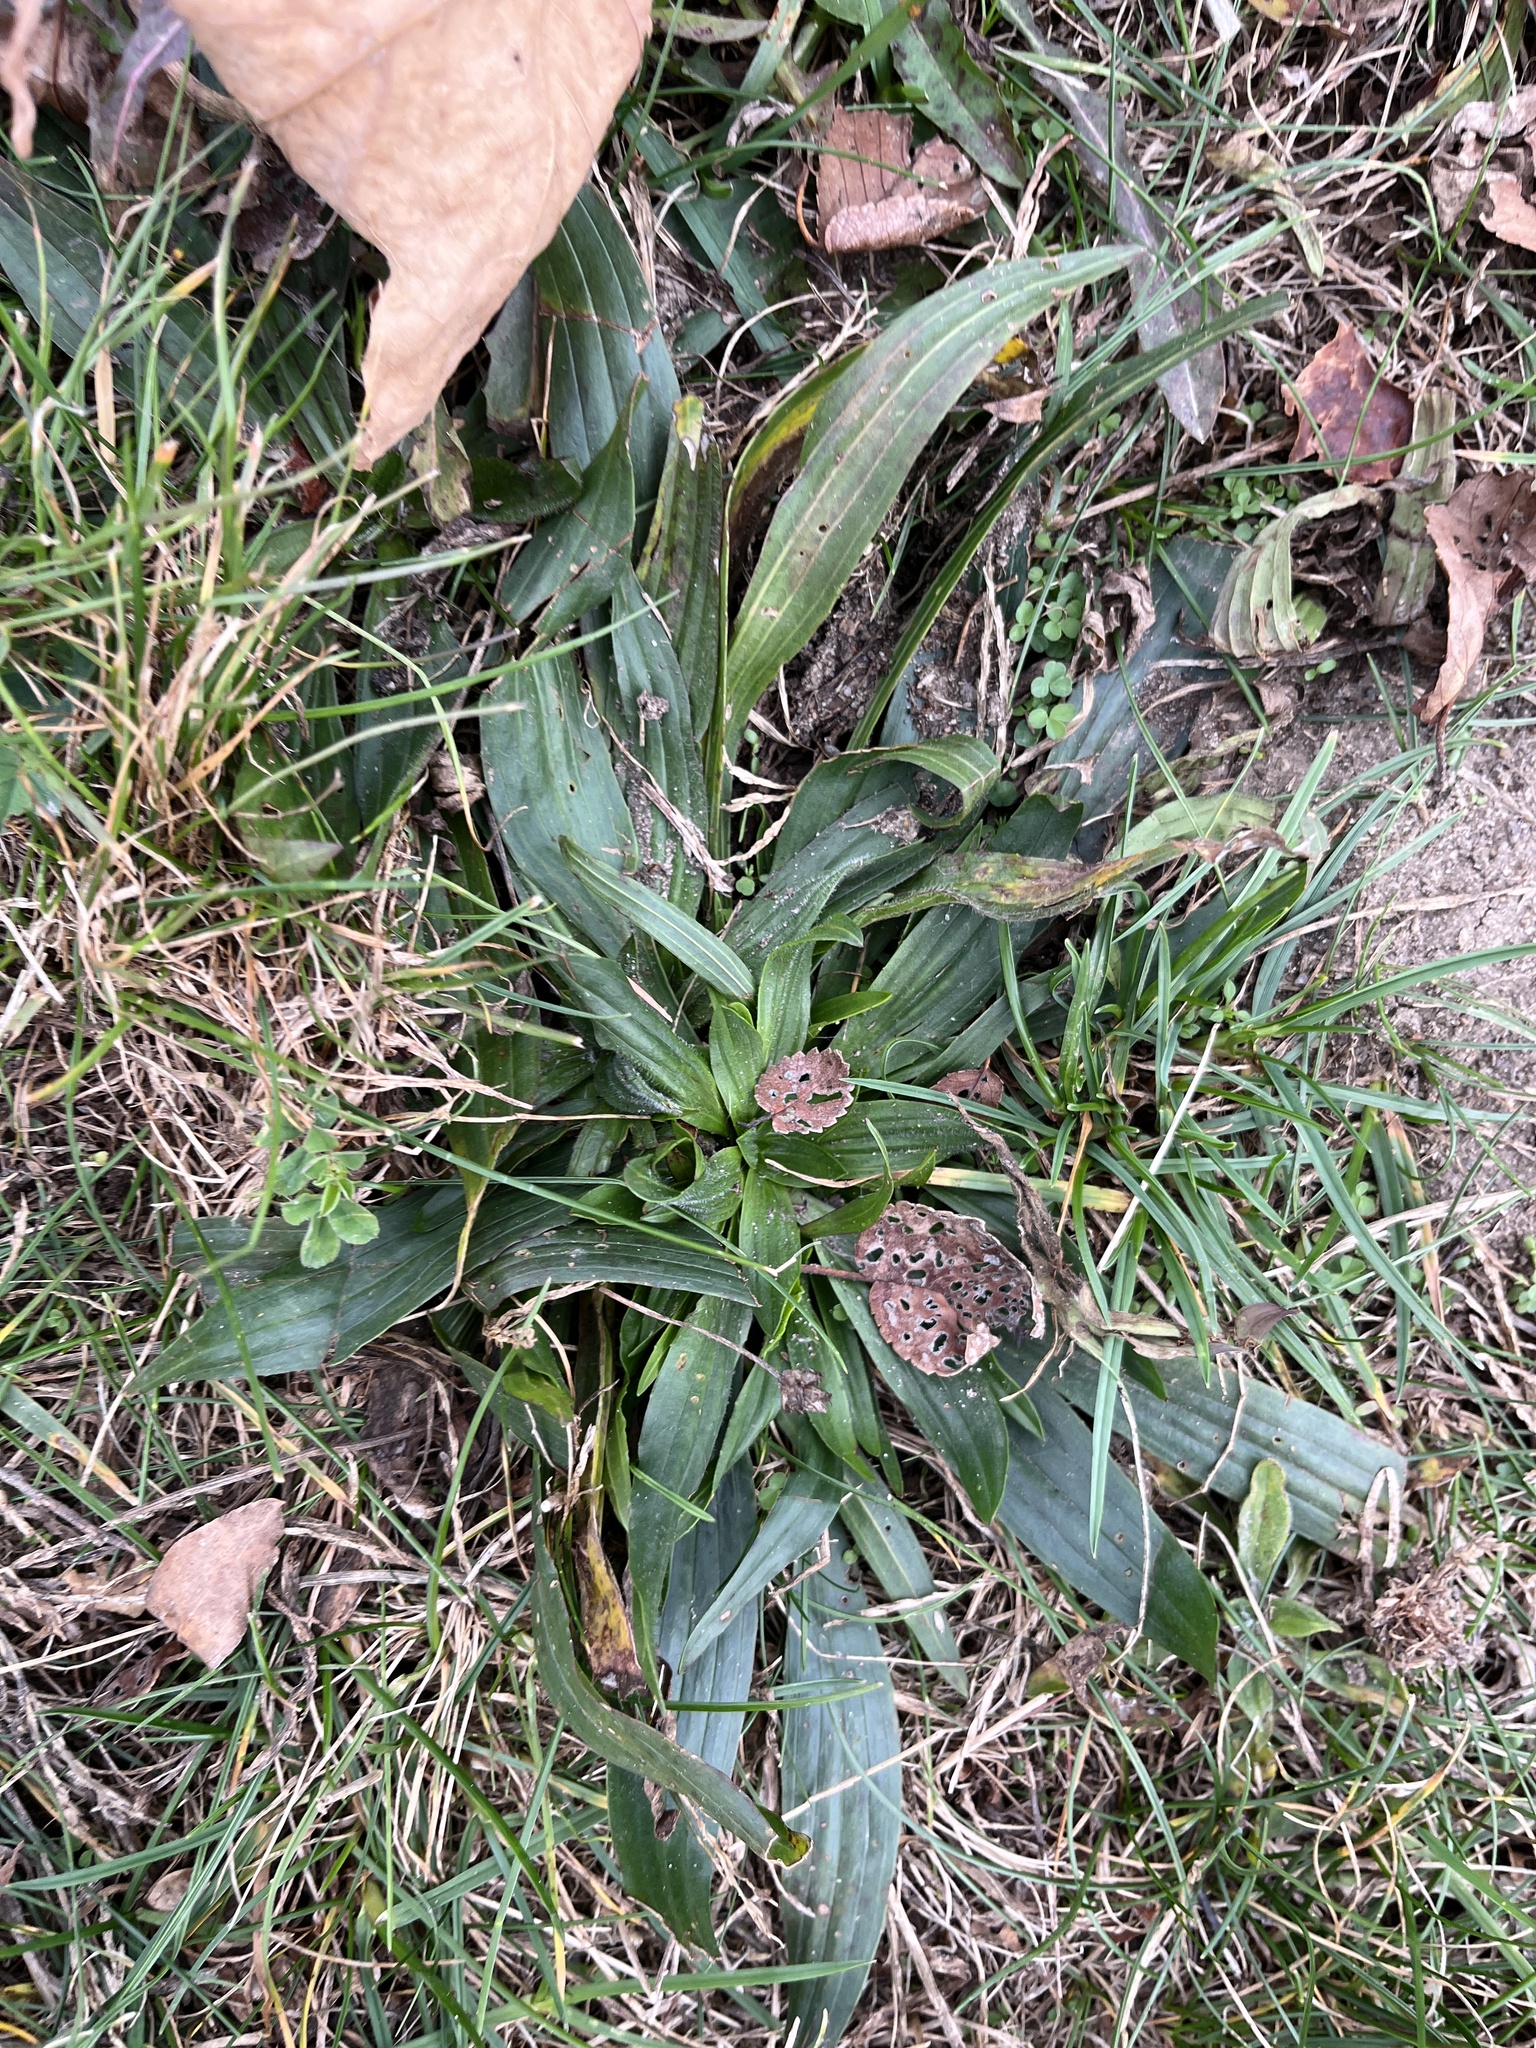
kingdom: Plantae
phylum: Tracheophyta
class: Magnoliopsida
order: Lamiales
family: Plantaginaceae
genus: Plantago
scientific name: Plantago lanceolata
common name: Ribwort plantain
